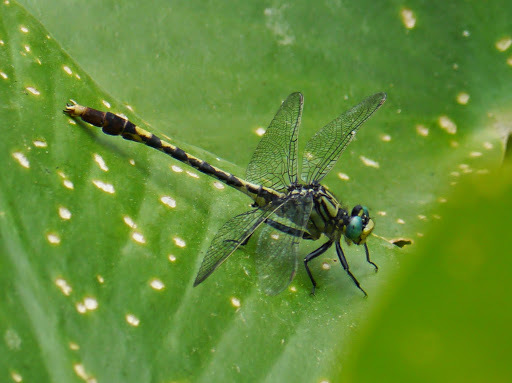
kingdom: Animalia
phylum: Arthropoda
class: Insecta
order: Odonata
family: Gomphidae
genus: Arigomphus
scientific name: Arigomphus villosipes
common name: Unicorn clubtail
